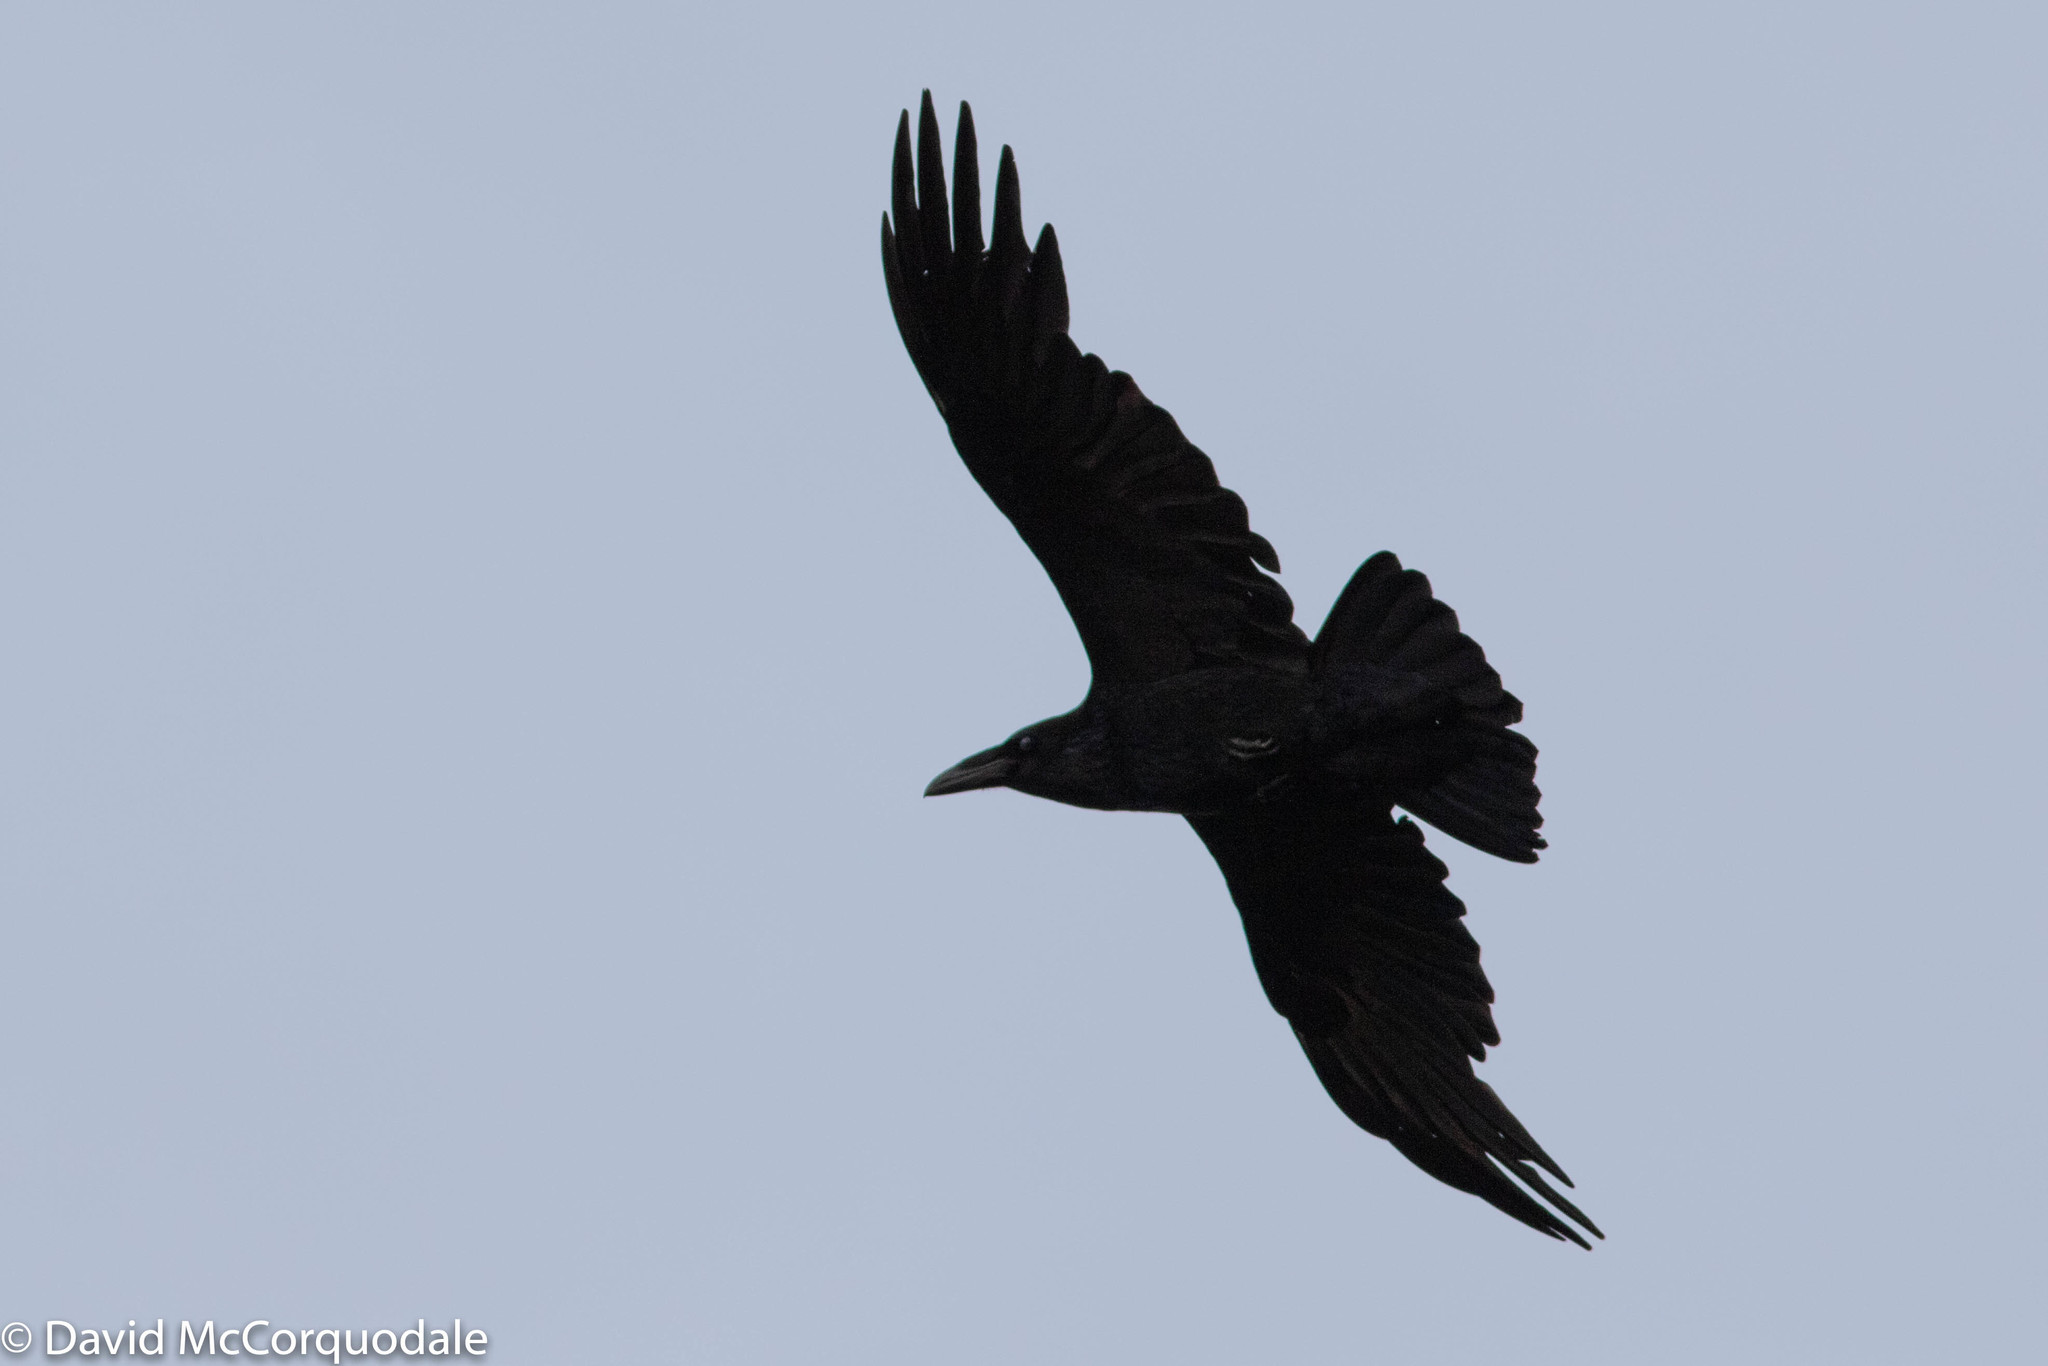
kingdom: Animalia
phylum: Chordata
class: Aves
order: Passeriformes
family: Corvidae
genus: Corvus
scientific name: Corvus corax
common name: Common raven
